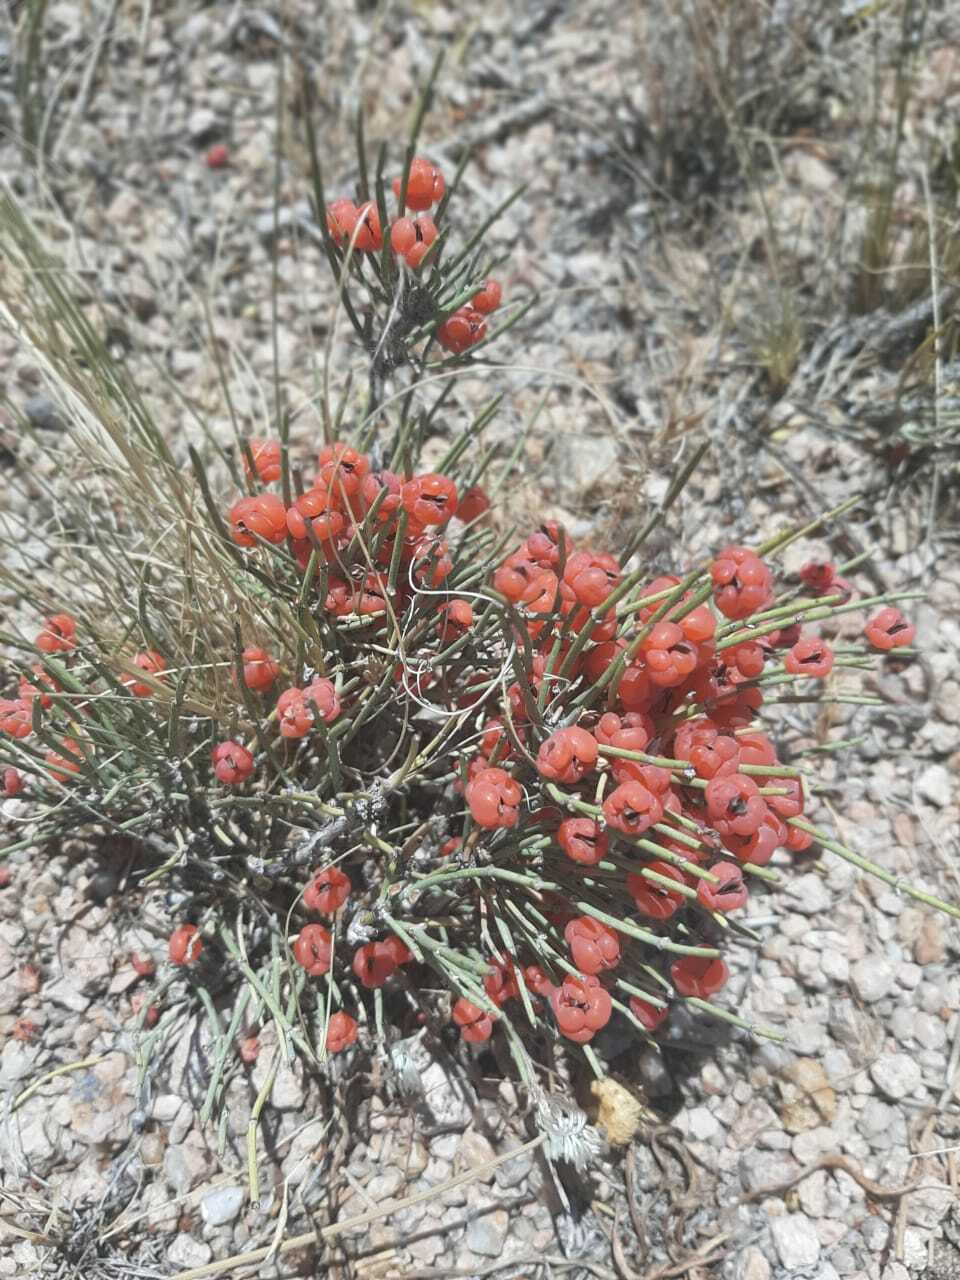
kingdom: Plantae
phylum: Tracheophyta
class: Gnetopsida
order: Ephedrales
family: Ephedraceae
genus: Ephedra
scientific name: Ephedra distachya
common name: Sea grape
